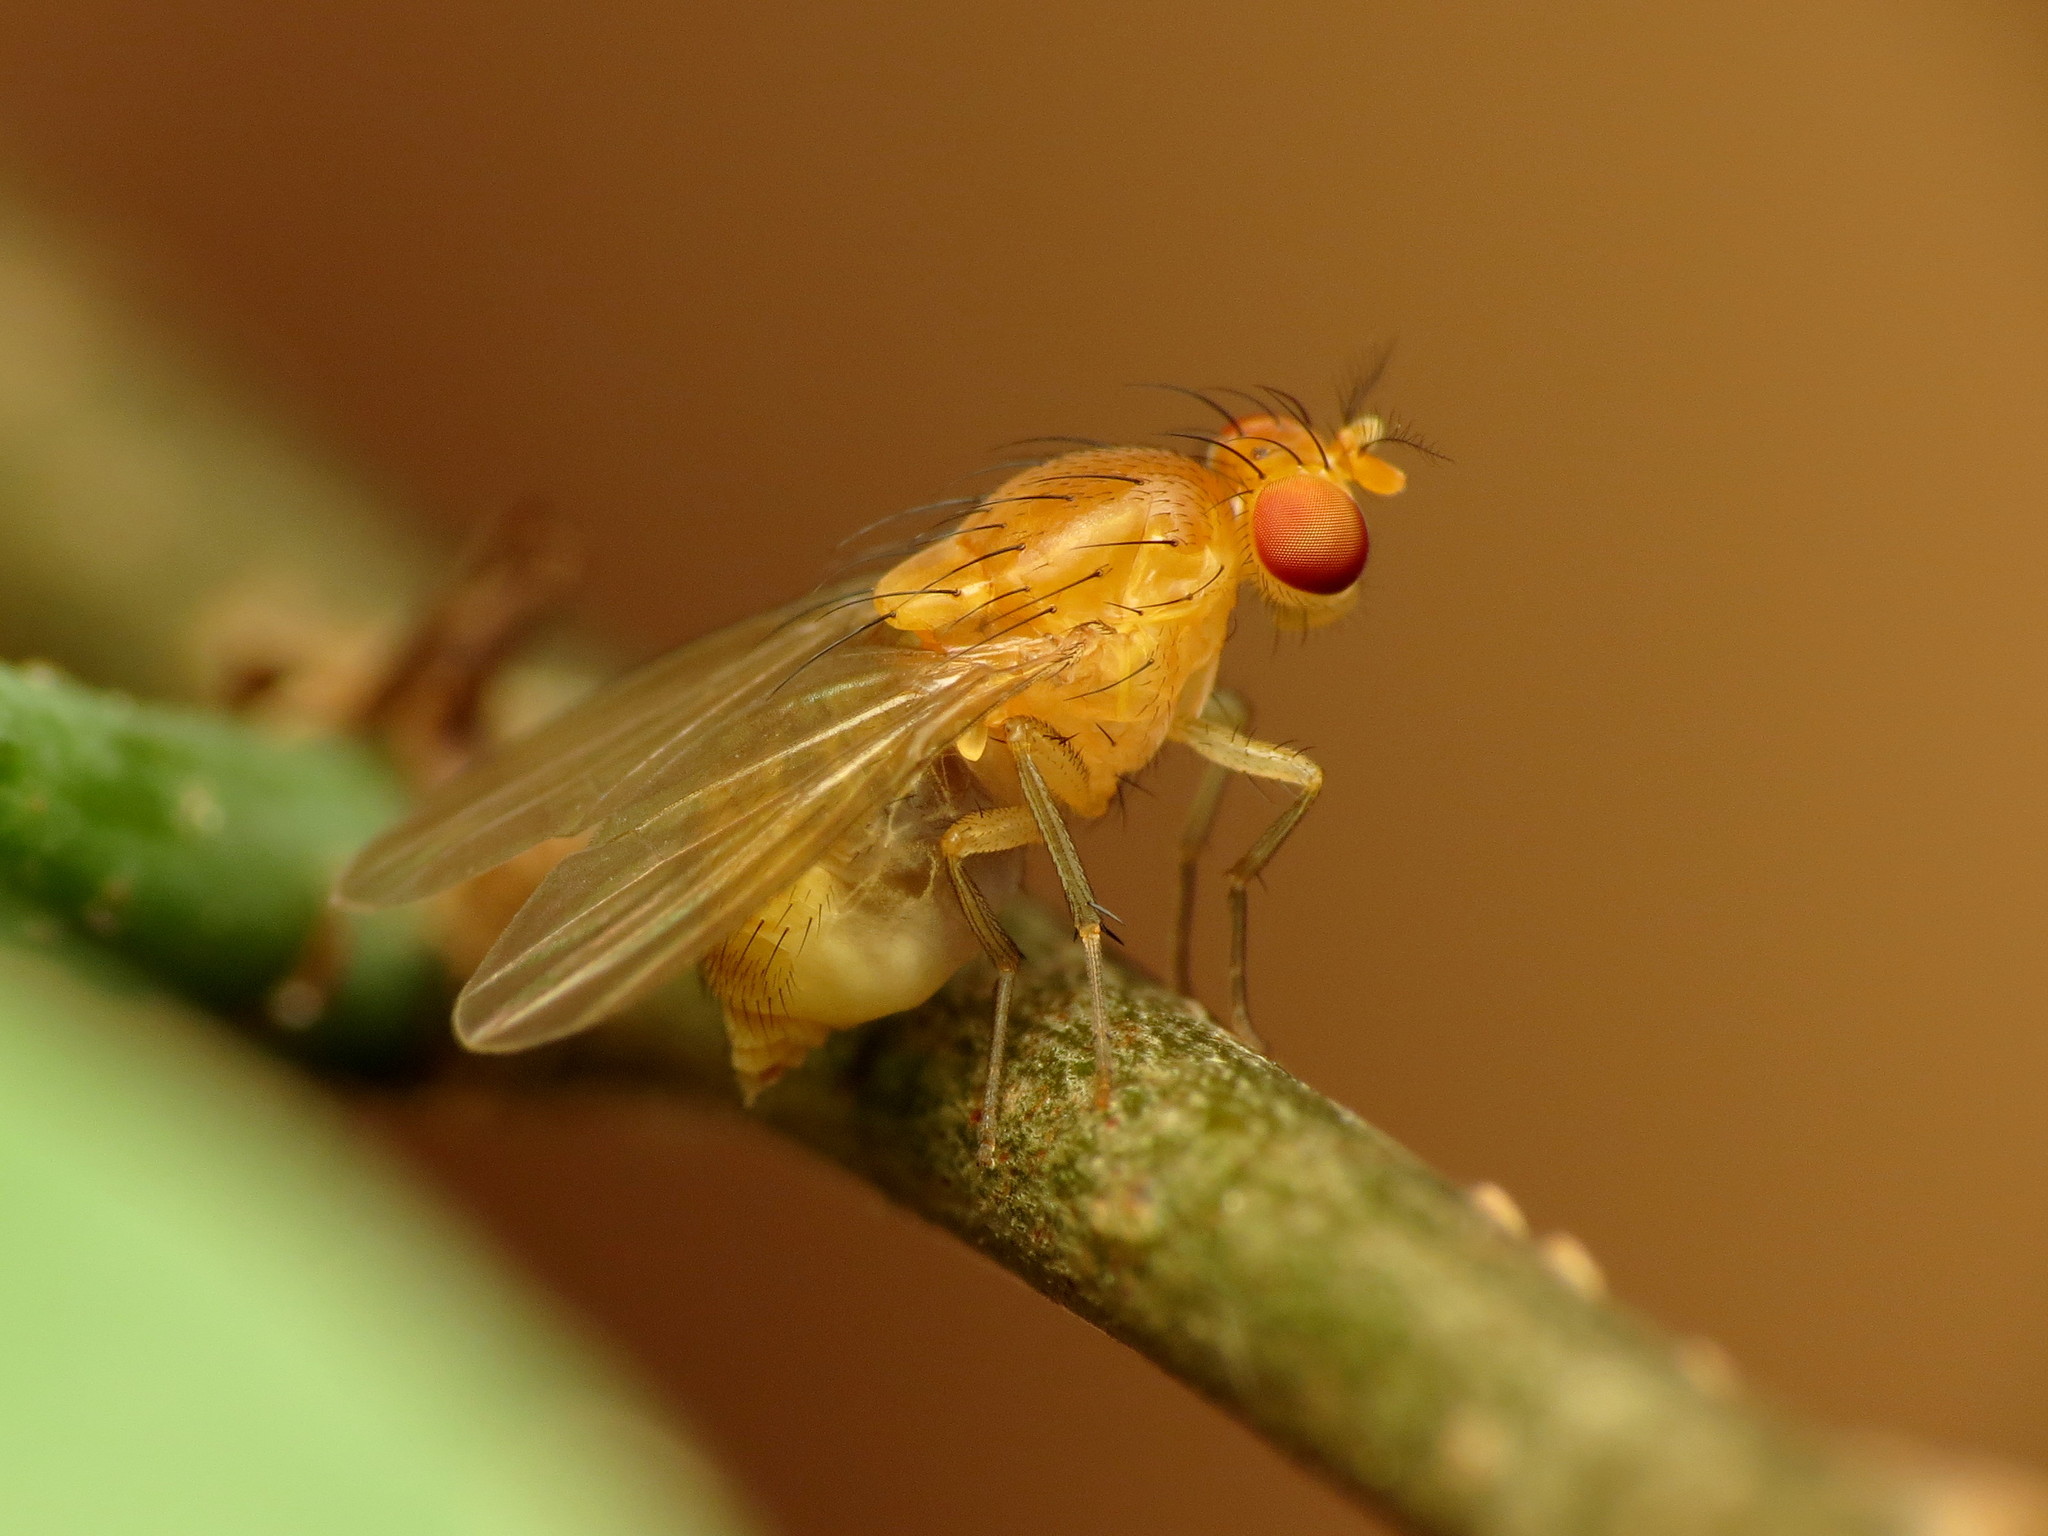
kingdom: Animalia
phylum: Arthropoda
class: Insecta
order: Diptera
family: Lauxaniidae
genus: Neogriphoneura
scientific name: Neogriphoneura sordida
